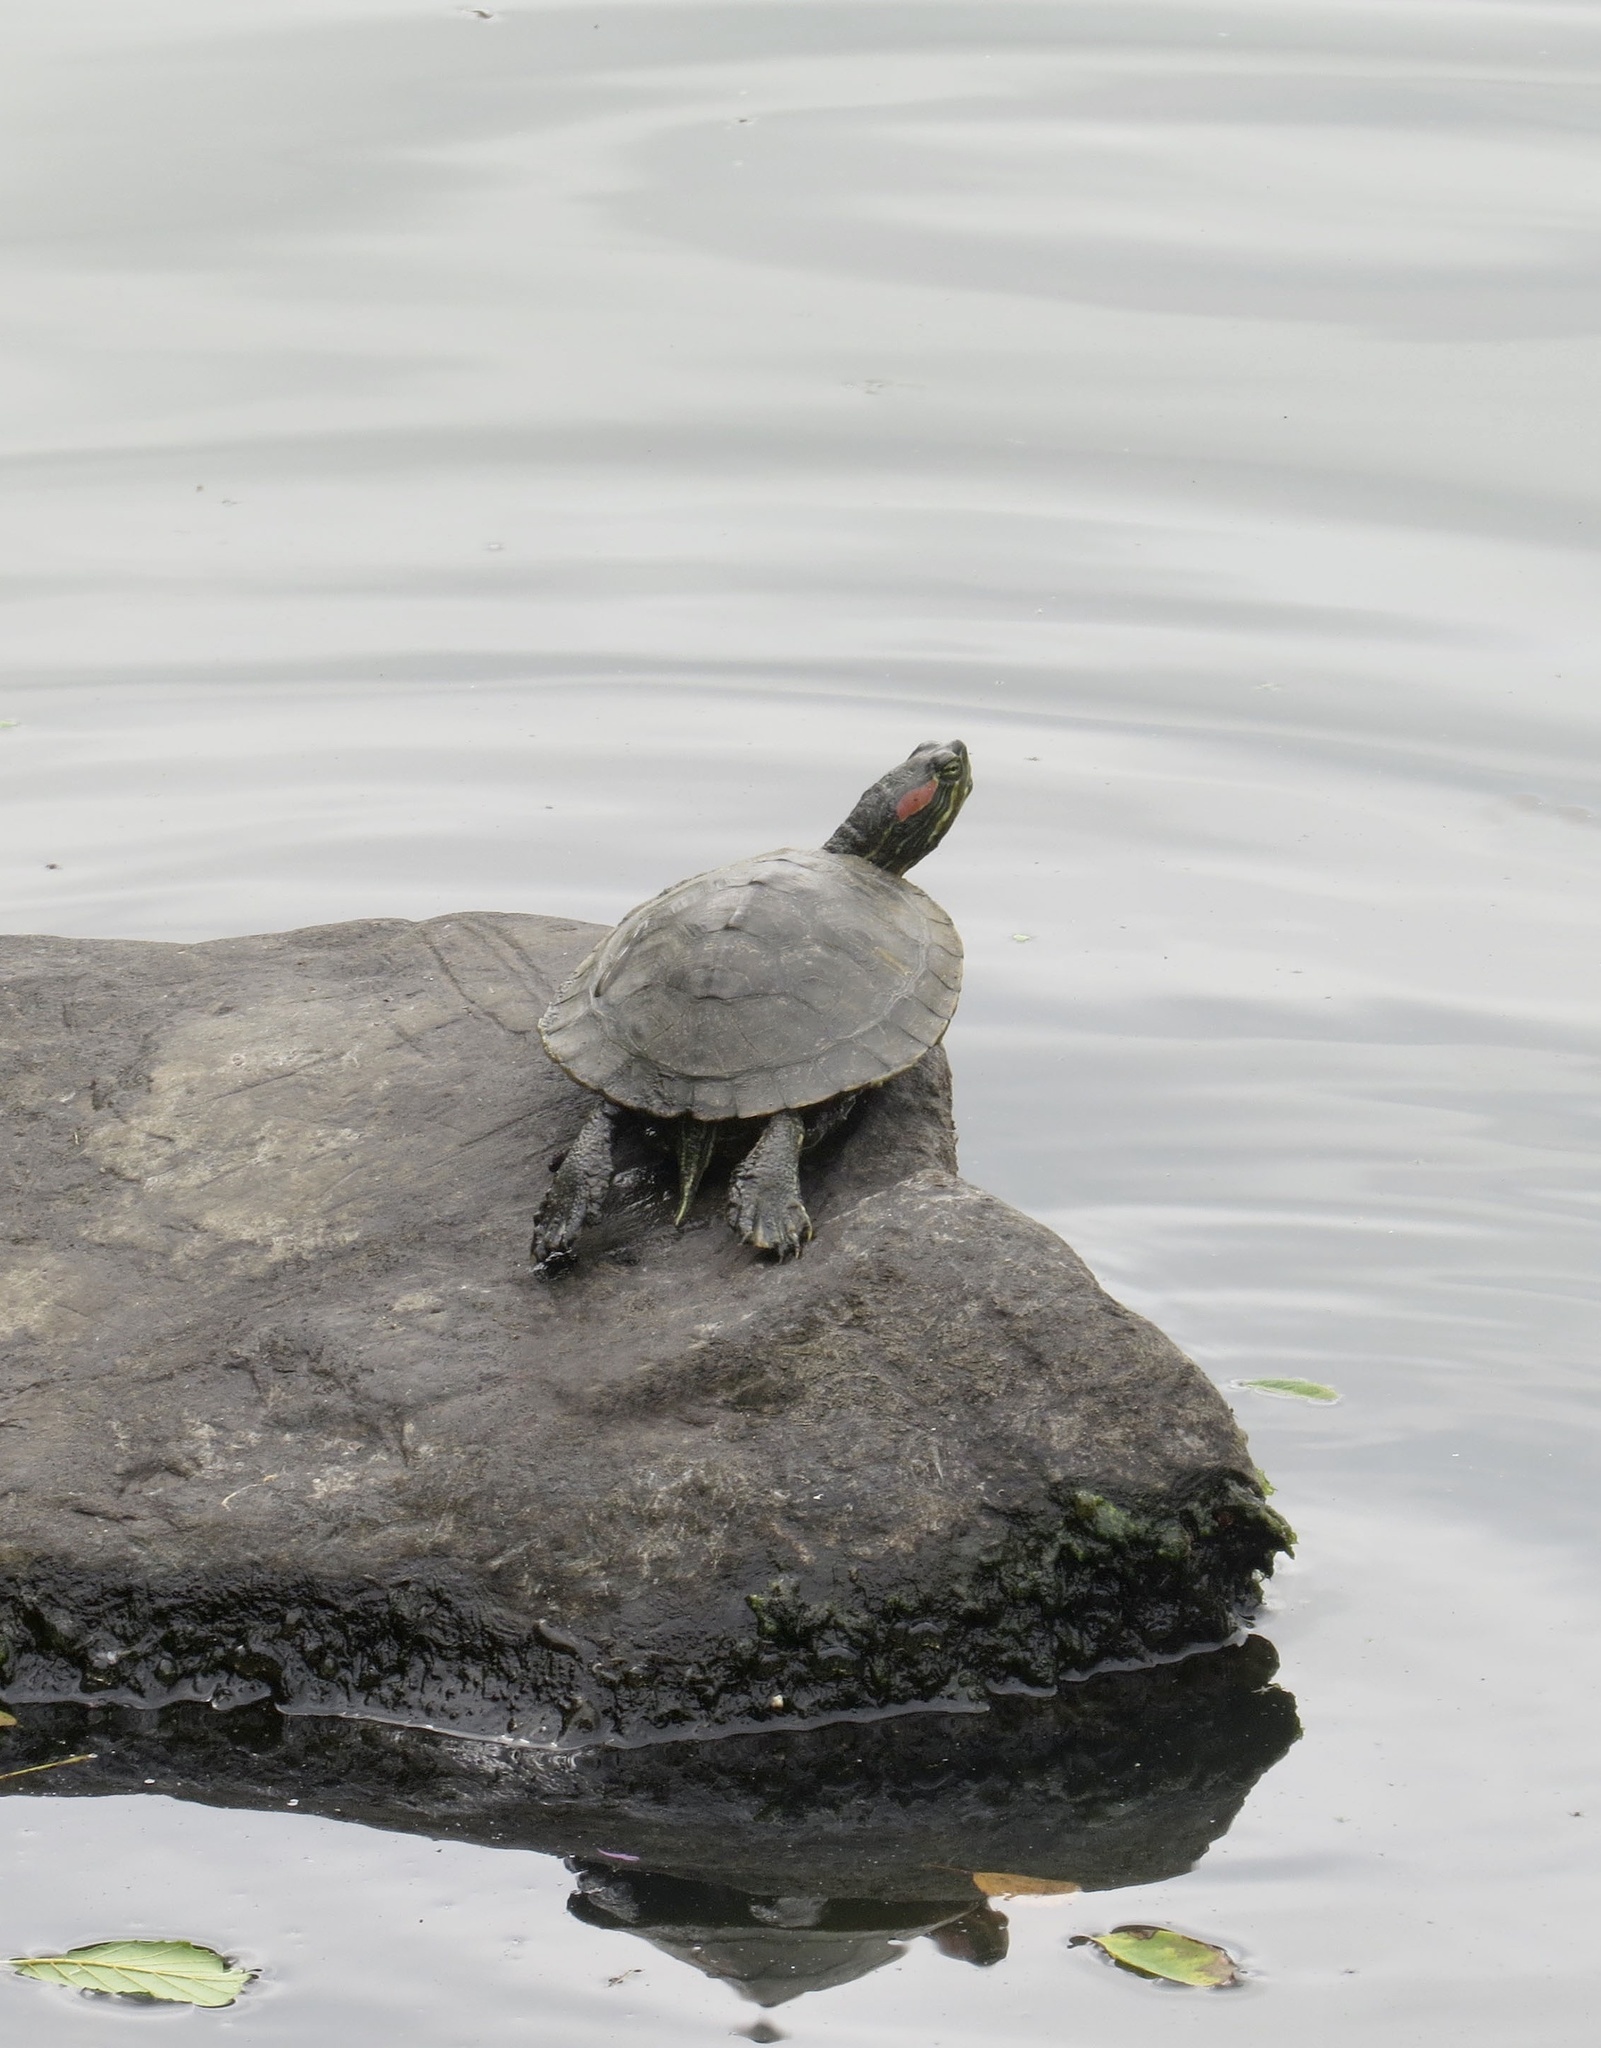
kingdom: Animalia
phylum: Chordata
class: Testudines
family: Emydidae
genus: Trachemys
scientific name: Trachemys scripta
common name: Slider
